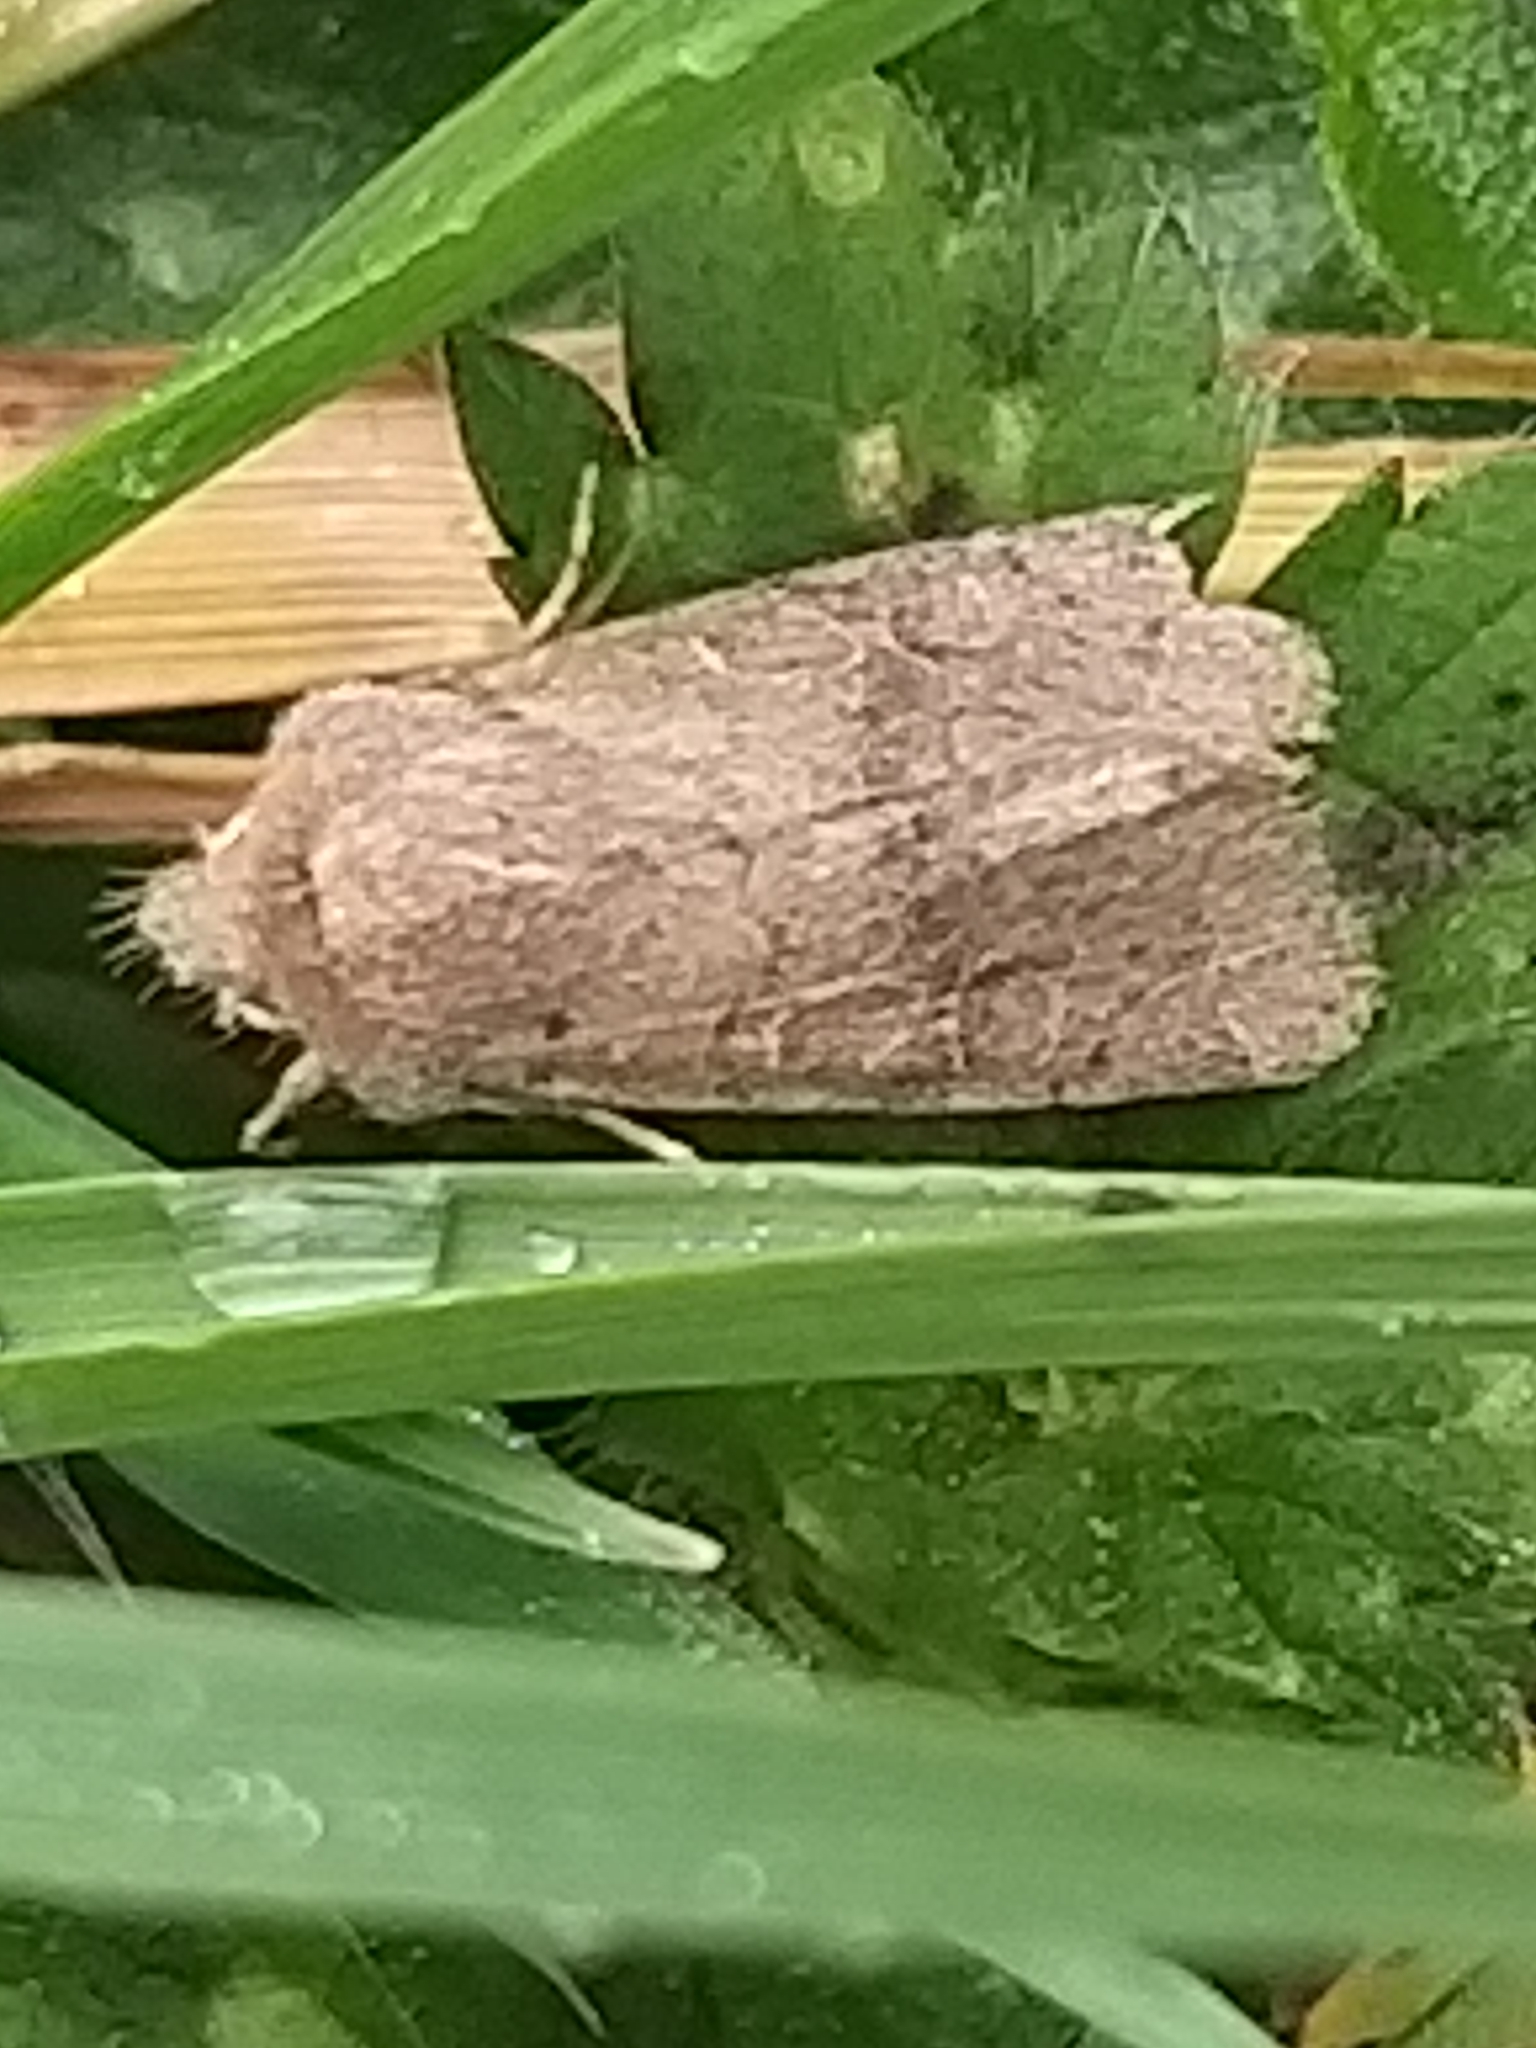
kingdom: Animalia
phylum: Arthropoda
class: Insecta
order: Lepidoptera
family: Noctuidae
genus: Orthosia
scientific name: Orthosia cerasi
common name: Common quaker
